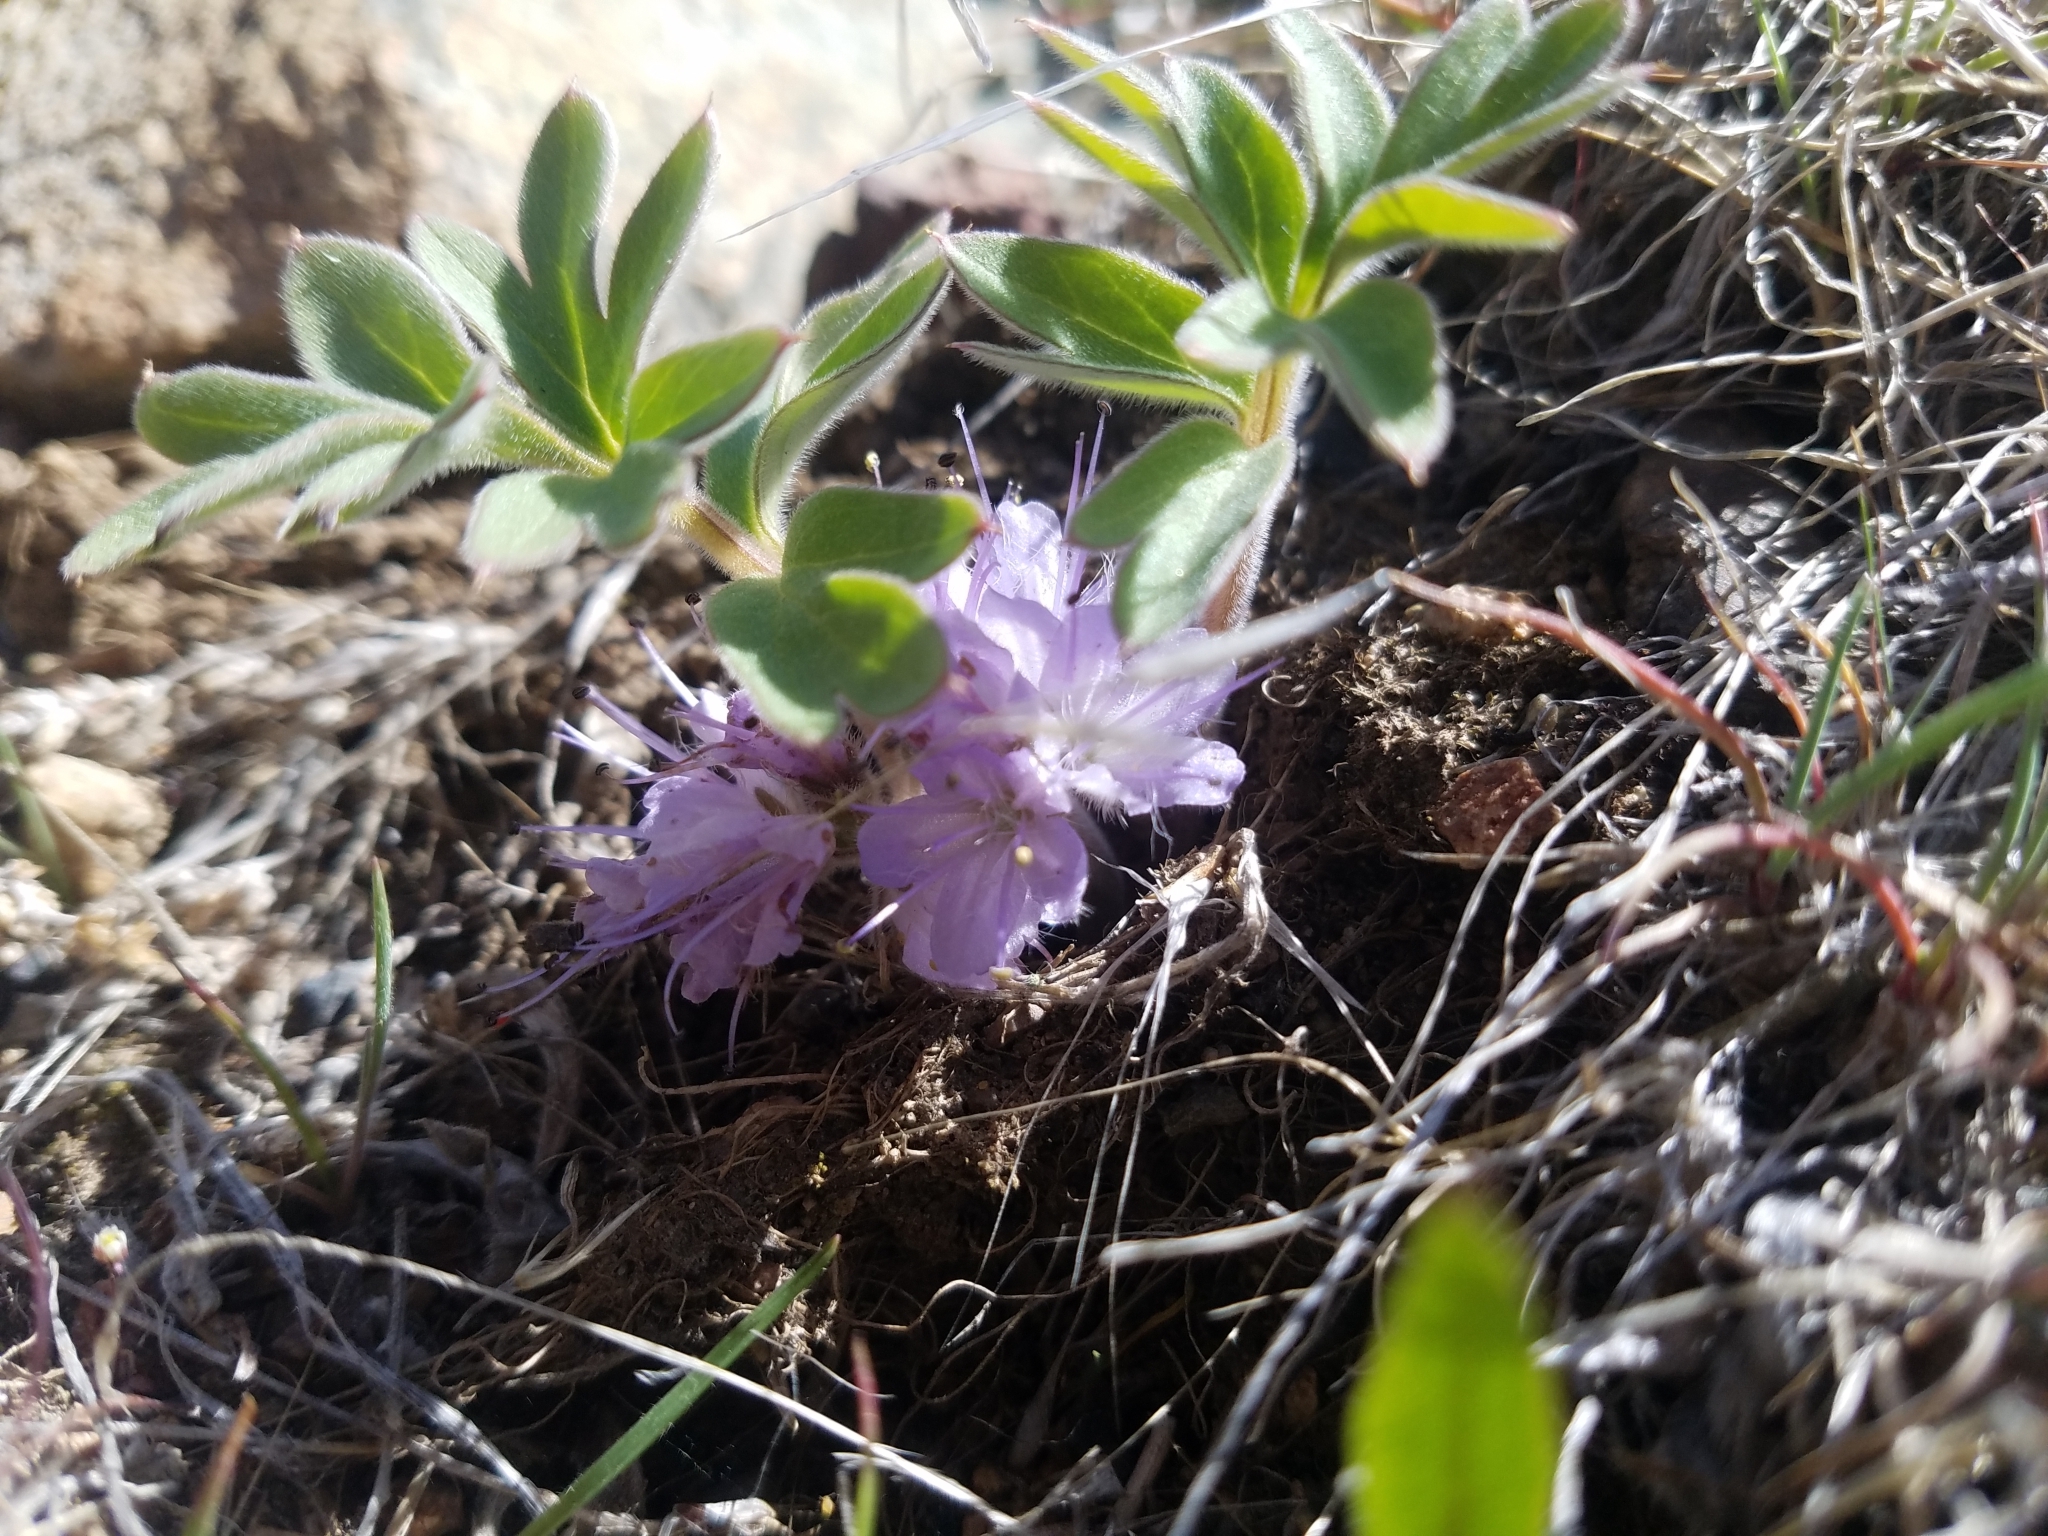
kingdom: Plantae
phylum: Tracheophyta
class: Magnoliopsida
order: Boraginales
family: Hydrophyllaceae
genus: Hydrophyllum
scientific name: Hydrophyllum alpestre
